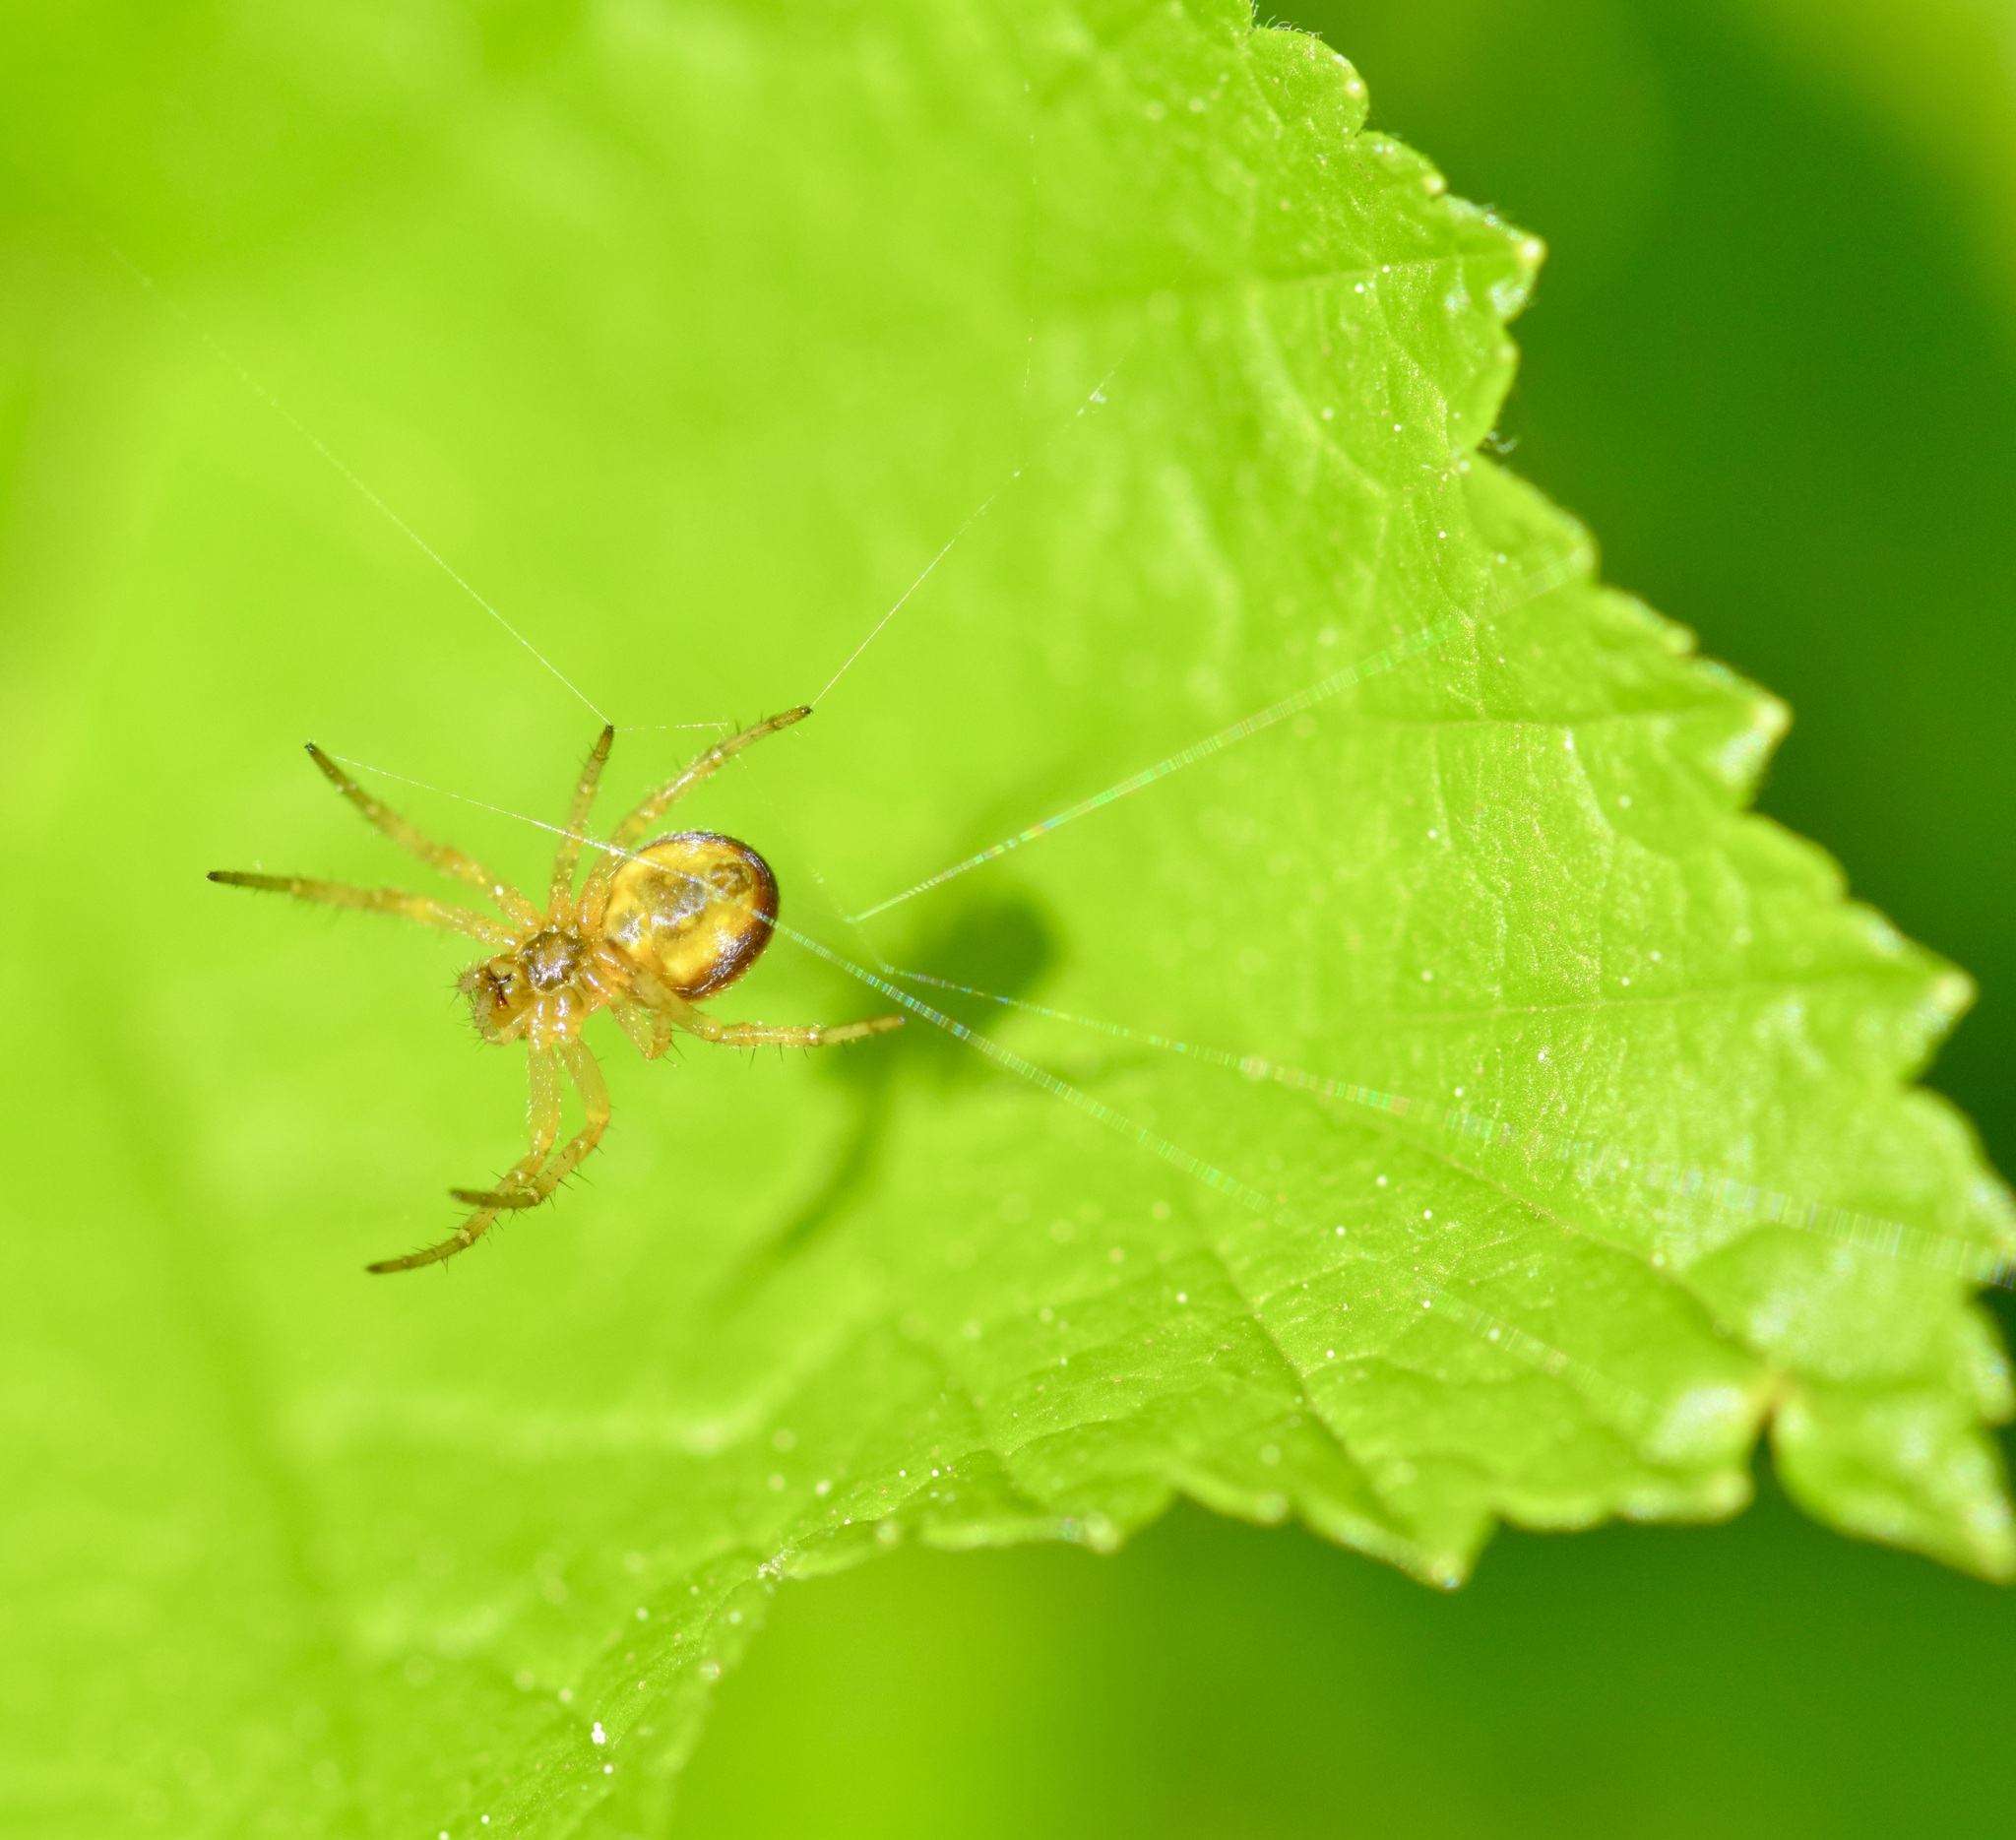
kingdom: Animalia
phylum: Arthropoda
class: Arachnida
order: Araneae
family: Araneidae
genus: Araniella
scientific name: Araniella displicata
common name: Sixspotted orb weaver
